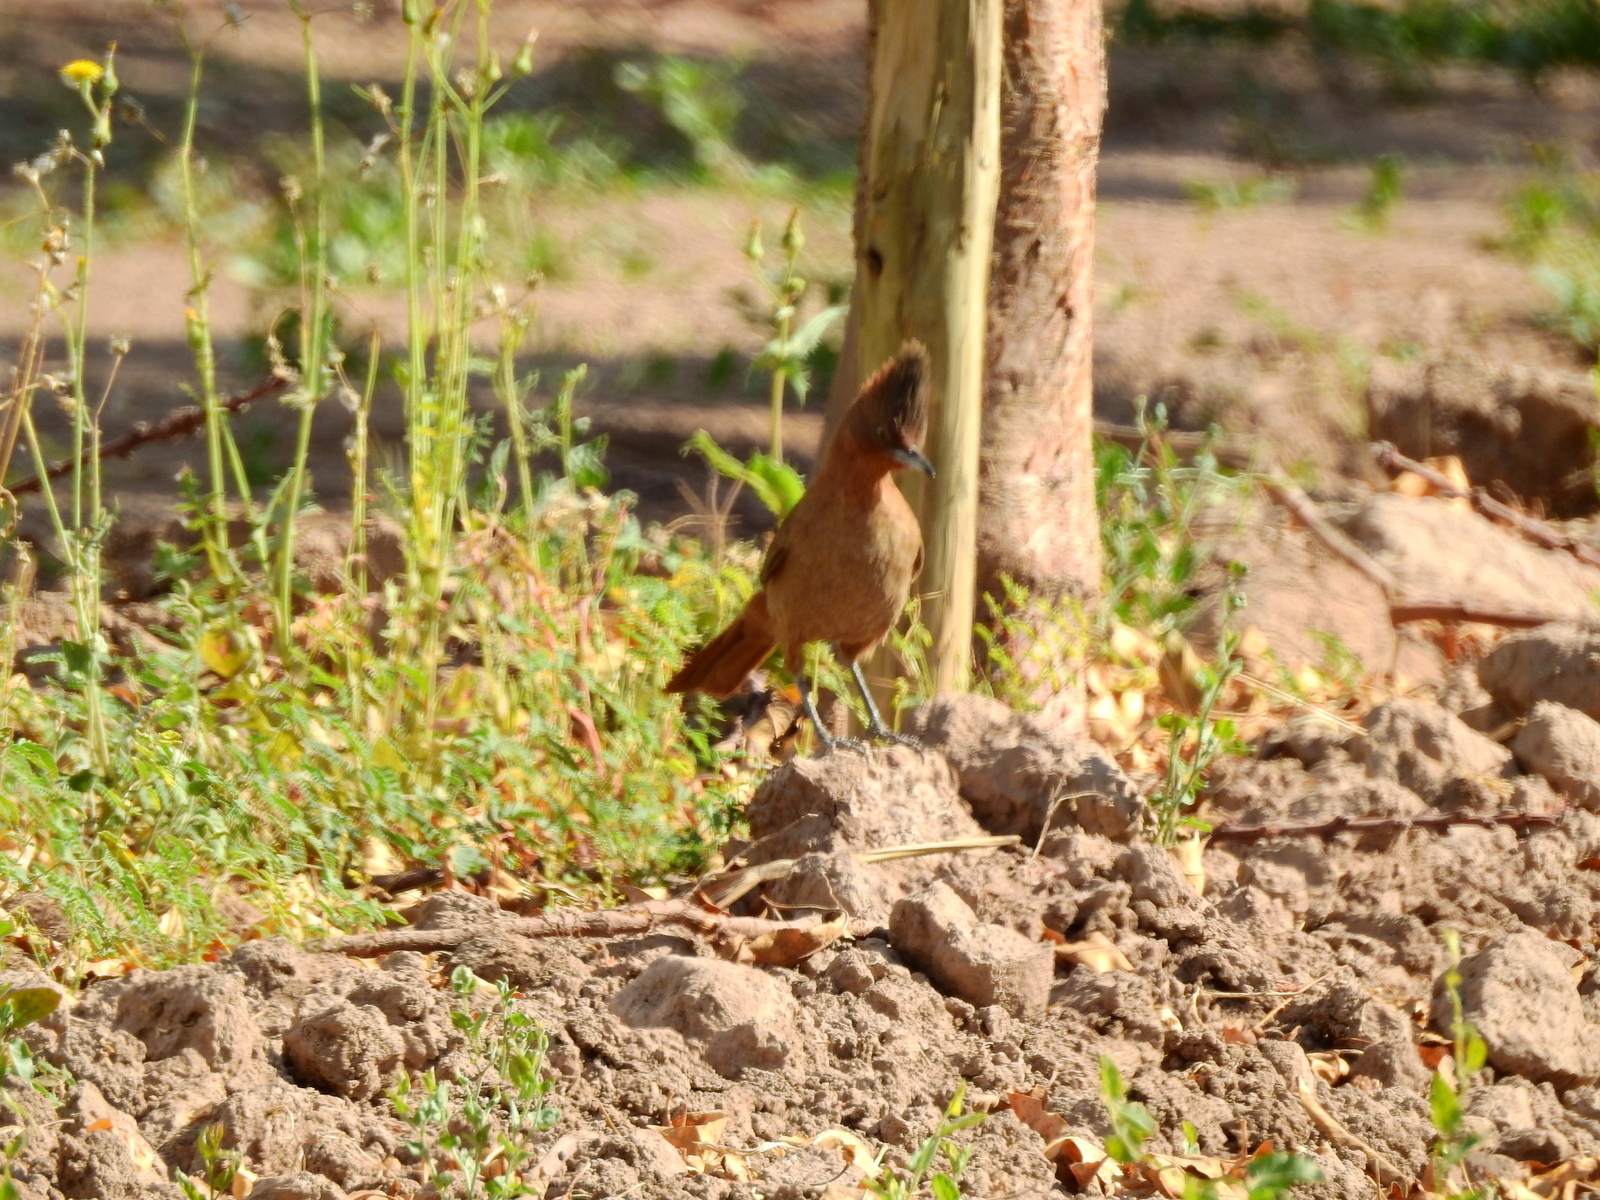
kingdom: Animalia
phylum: Chordata
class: Aves
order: Passeriformes
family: Furnariidae
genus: Pseudoseisura
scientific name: Pseudoseisura lophotes
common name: Brown cacholote
